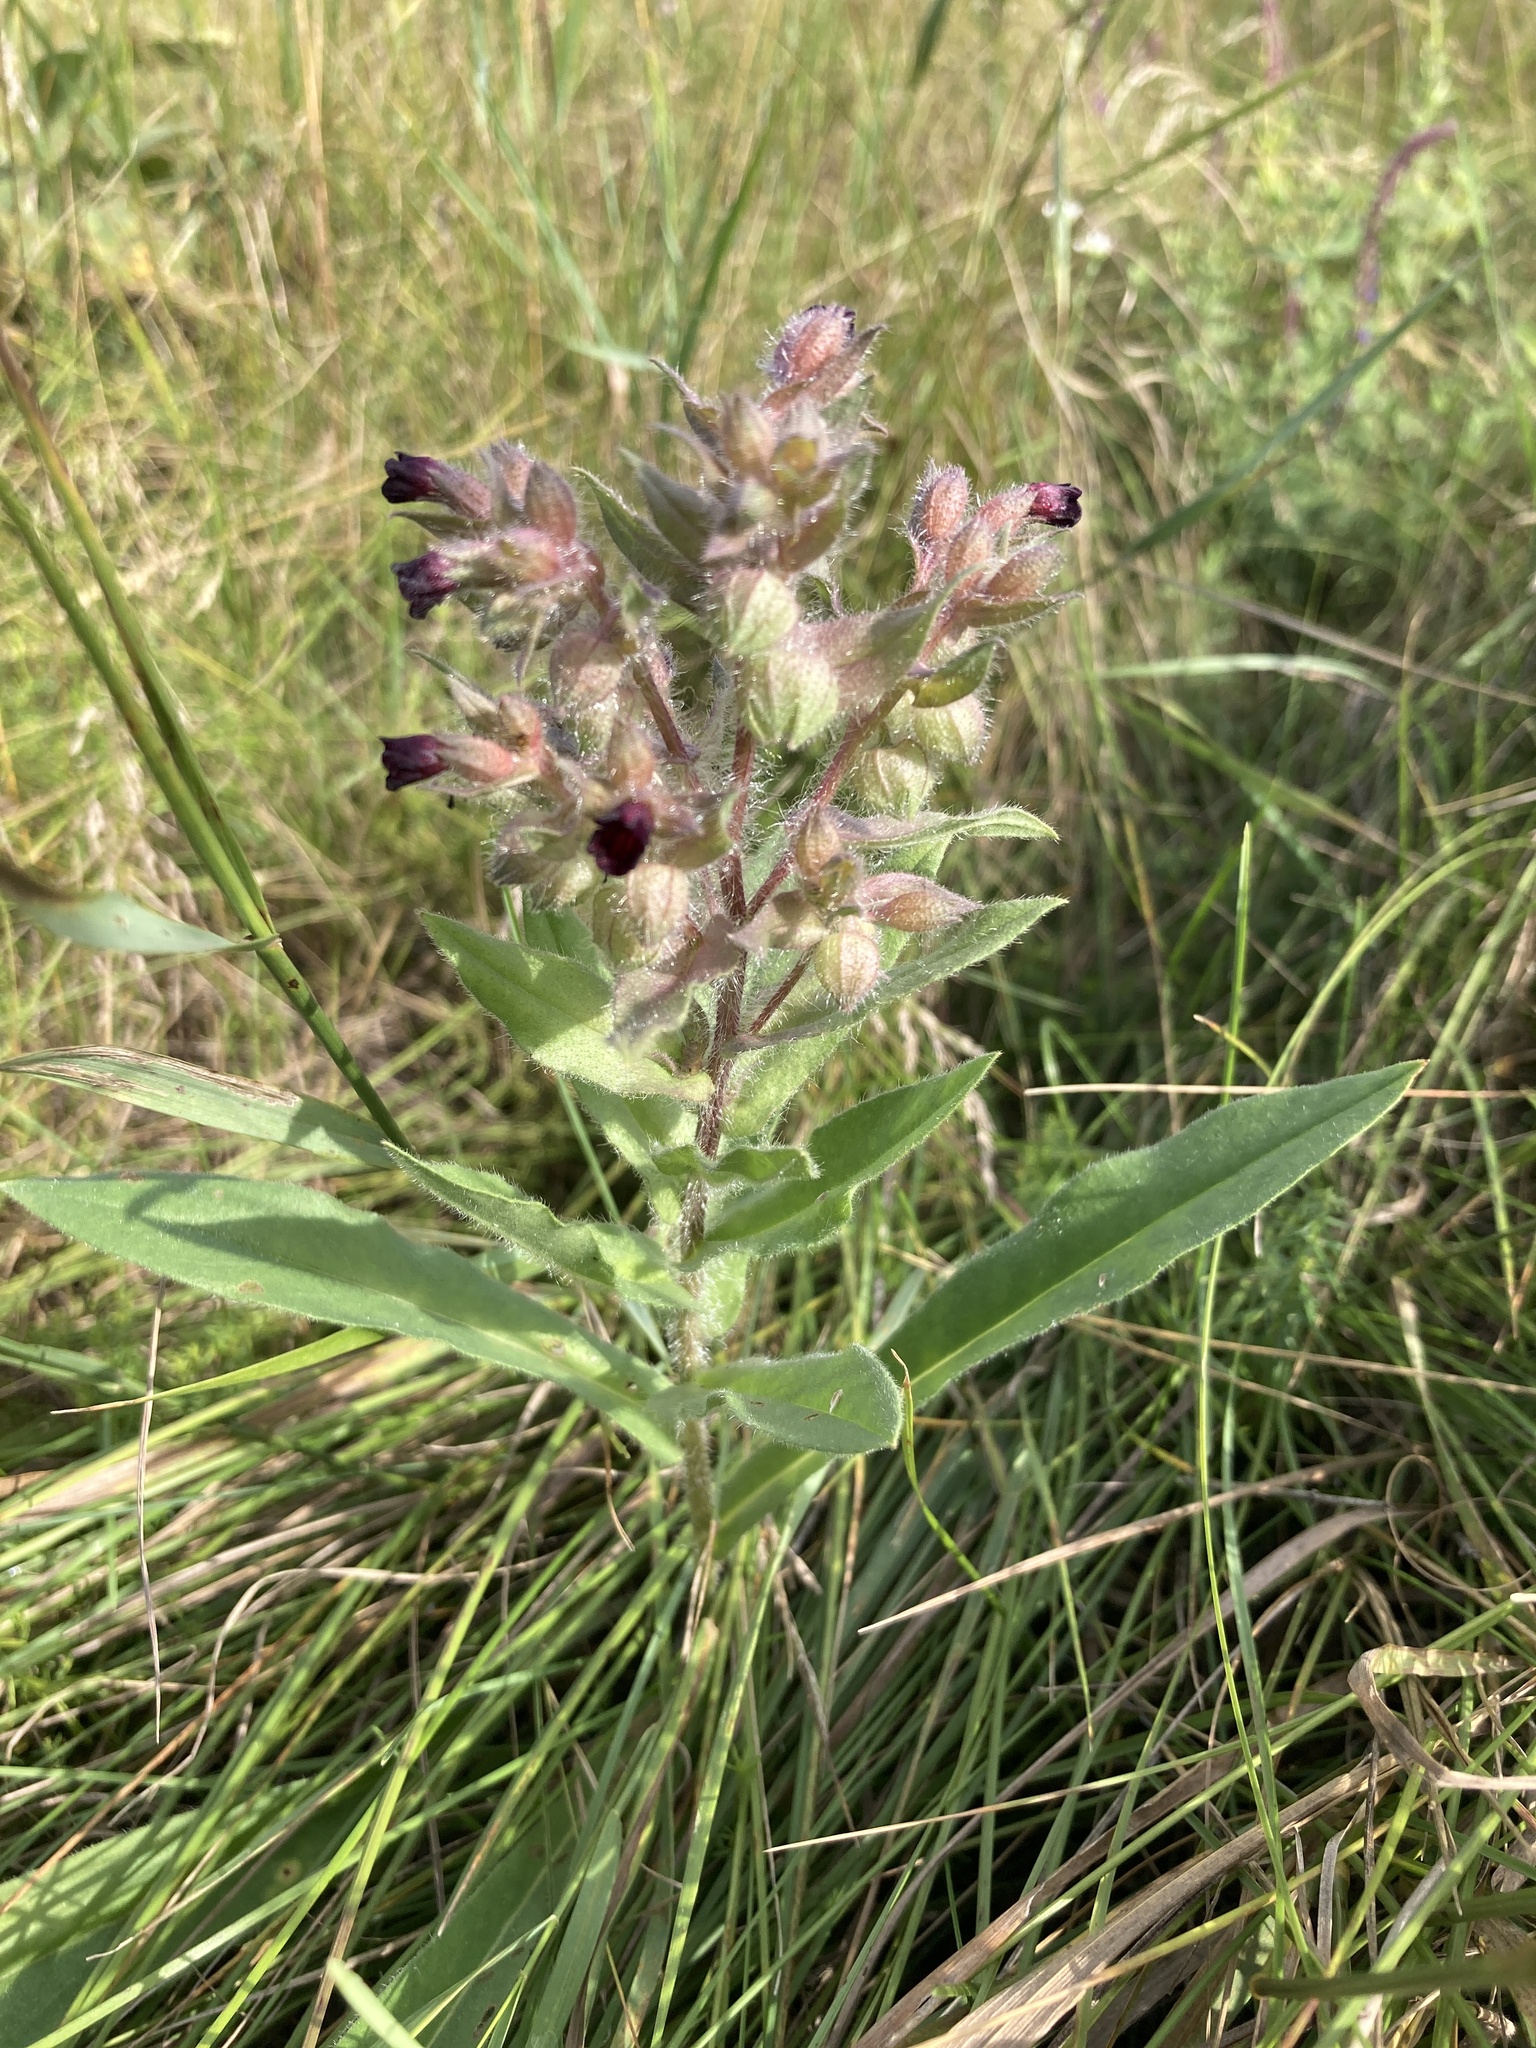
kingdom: Plantae
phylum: Tracheophyta
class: Magnoliopsida
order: Boraginales
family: Boraginaceae
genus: Nonea
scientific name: Nonea pulla
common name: Brown nonea
